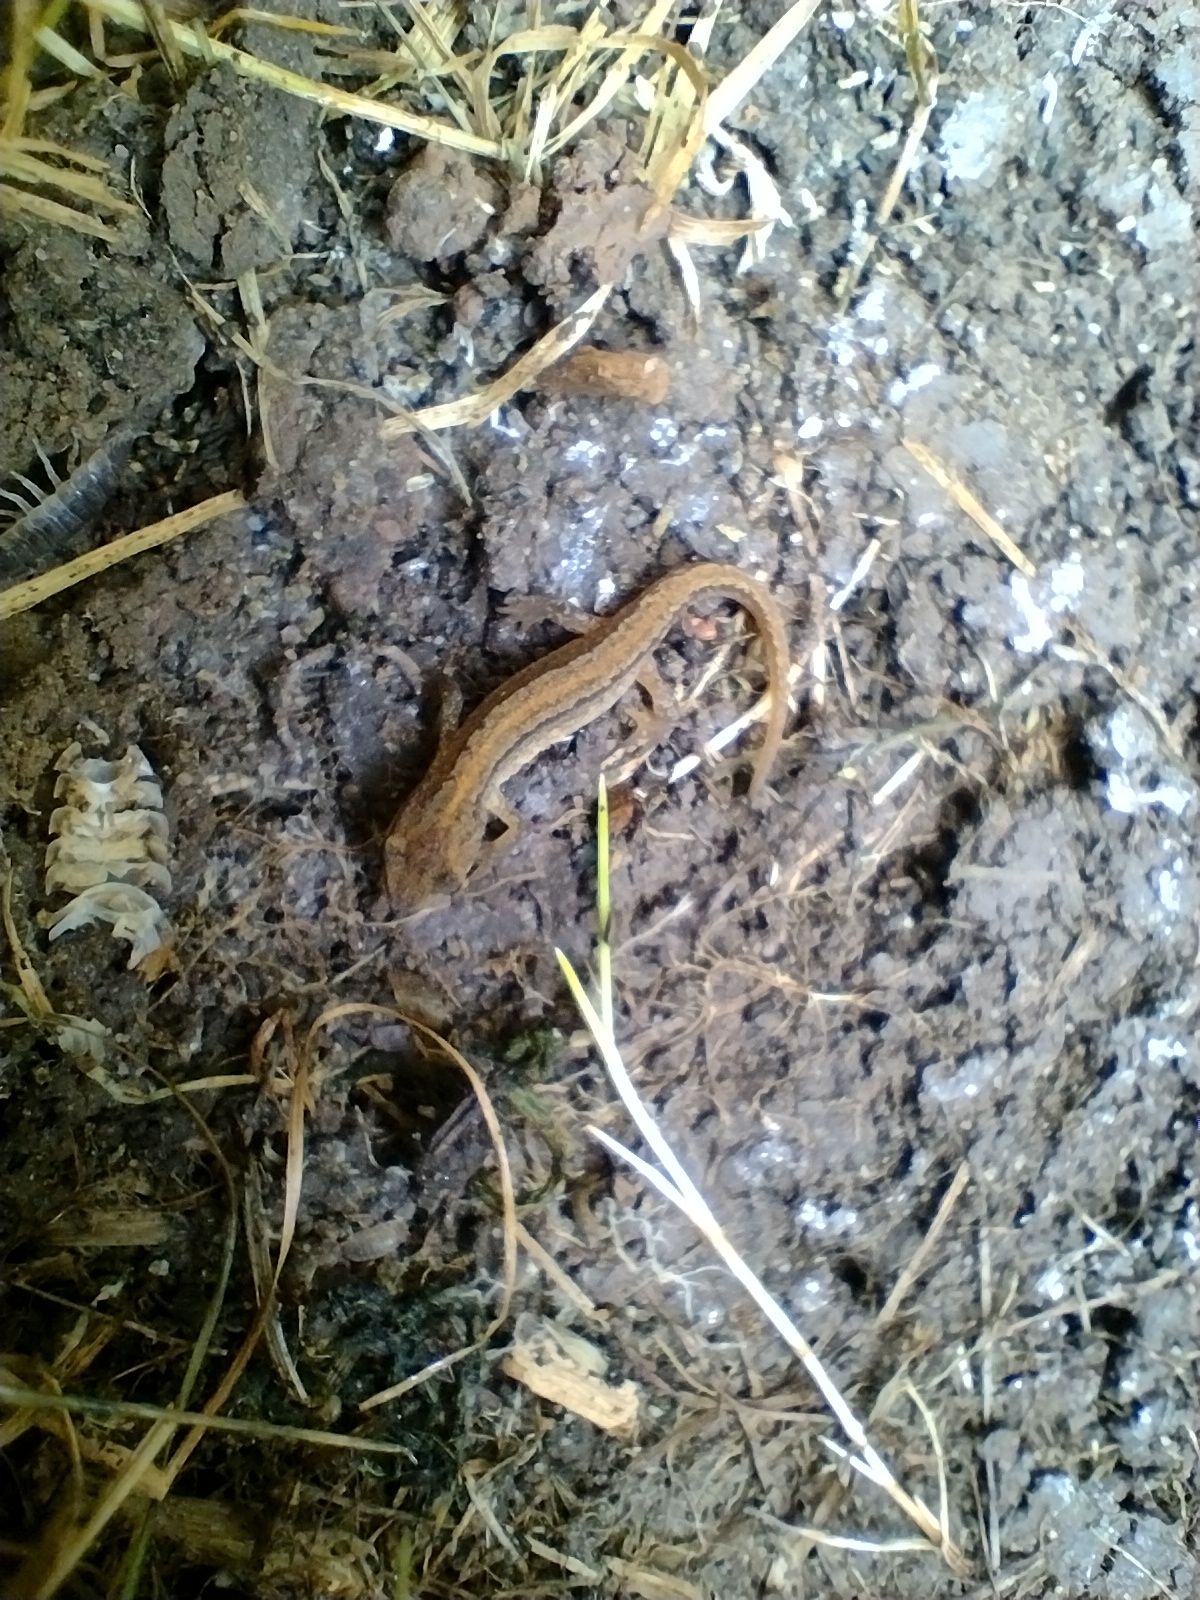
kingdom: Animalia
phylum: Chordata
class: Amphibia
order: Caudata
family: Salamandridae
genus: Lissotriton
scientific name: Lissotriton vulgaris
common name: Smooth newt
